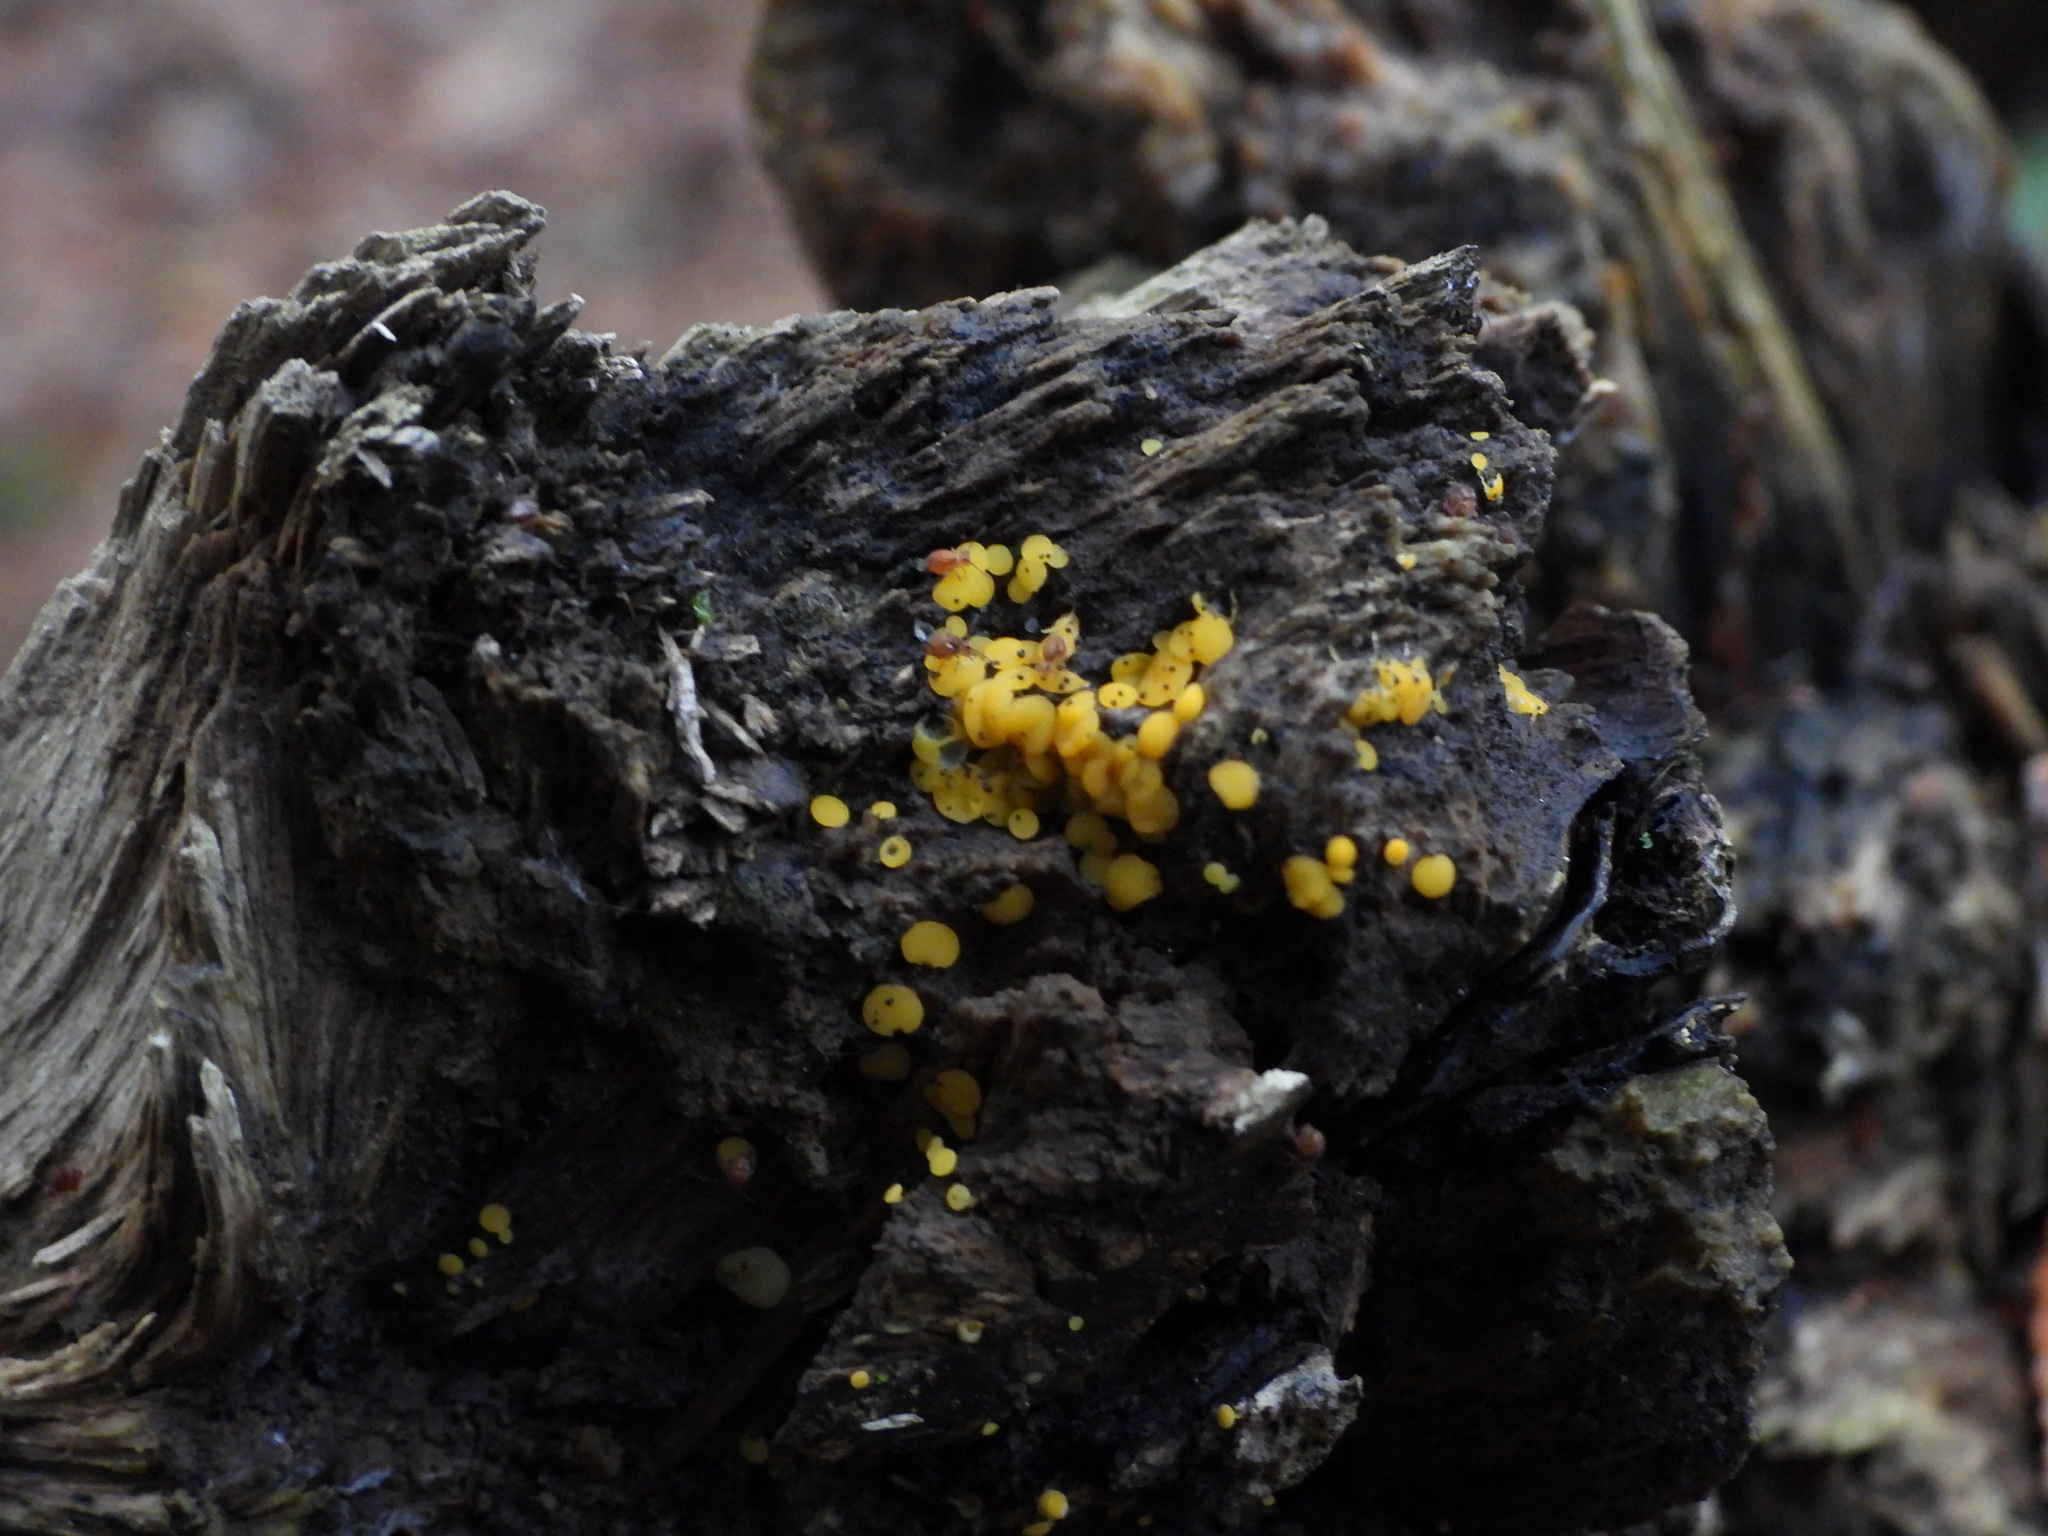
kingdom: Fungi
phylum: Ascomycota
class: Leotiomycetes
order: Helotiales
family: Pezizellaceae
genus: Calycina
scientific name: Calycina citrina
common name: Yellow fairy cups
